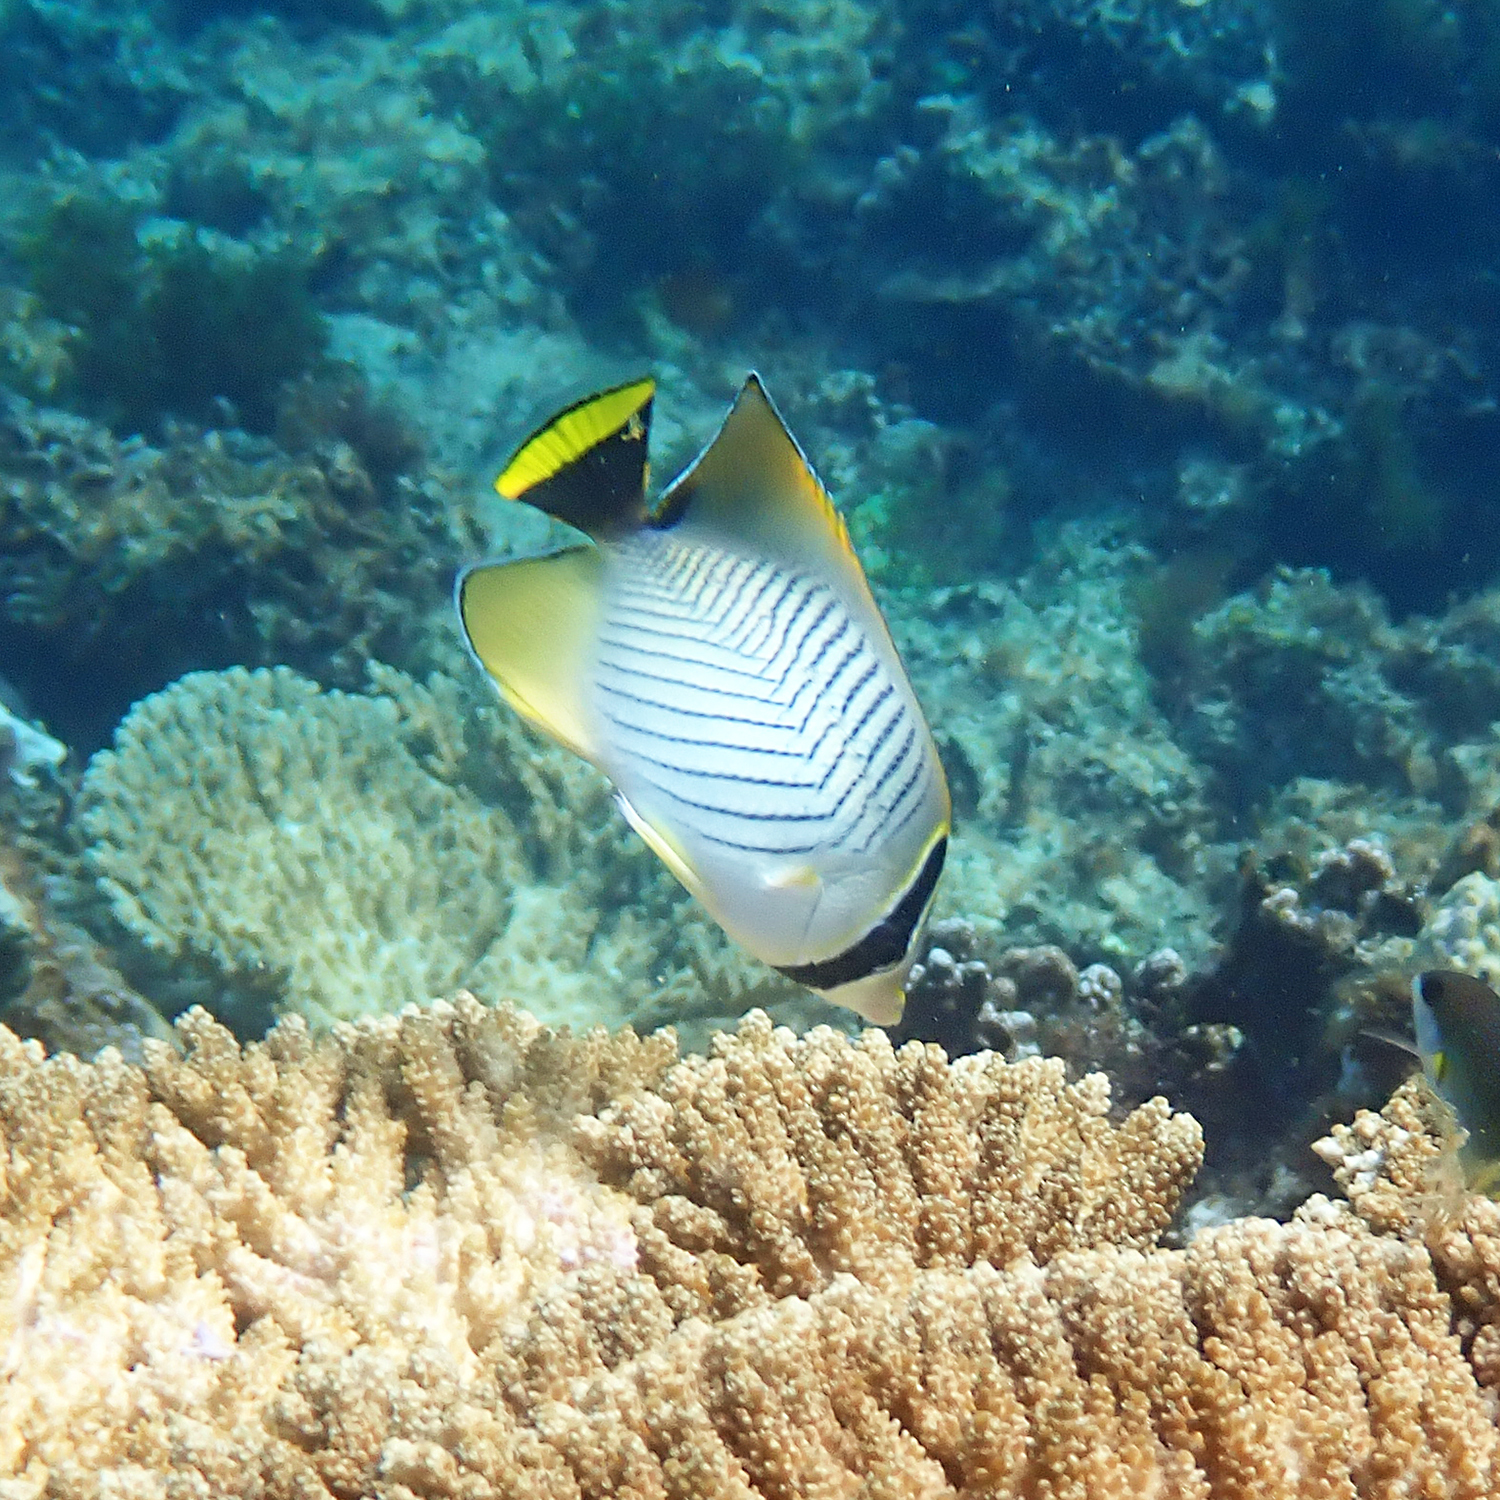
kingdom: Animalia
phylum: Chordata
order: Perciformes
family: Chaetodontidae
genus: Chaetodon
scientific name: Chaetodon trifascialis
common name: Chevroned butterflyfish
